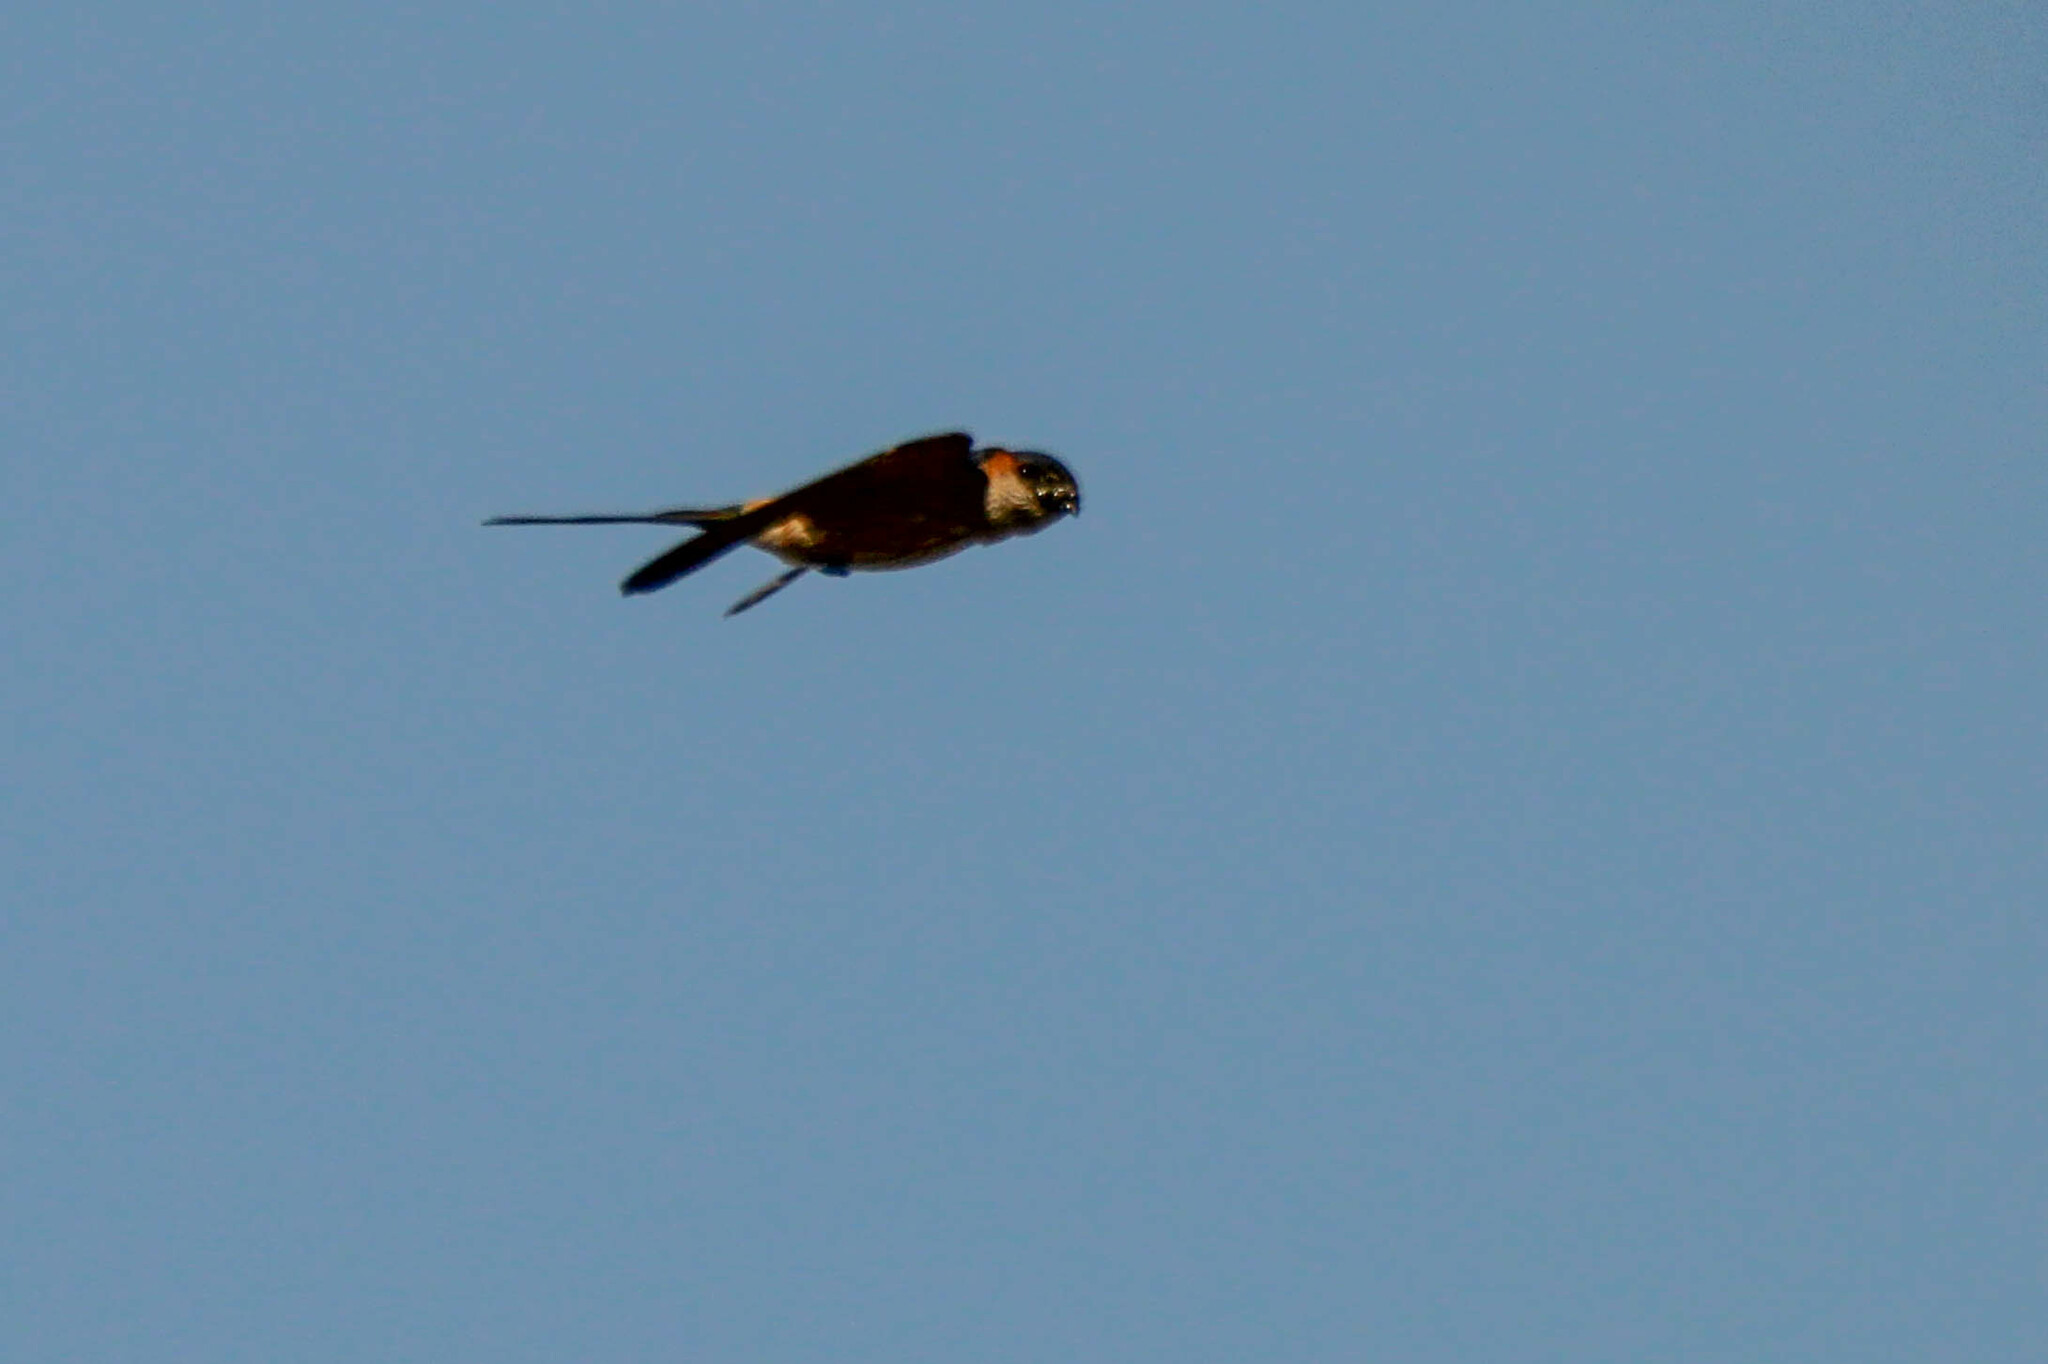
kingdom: Animalia
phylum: Chordata
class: Aves
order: Passeriformes
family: Hirundinidae
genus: Cecropis
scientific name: Cecropis daurica
